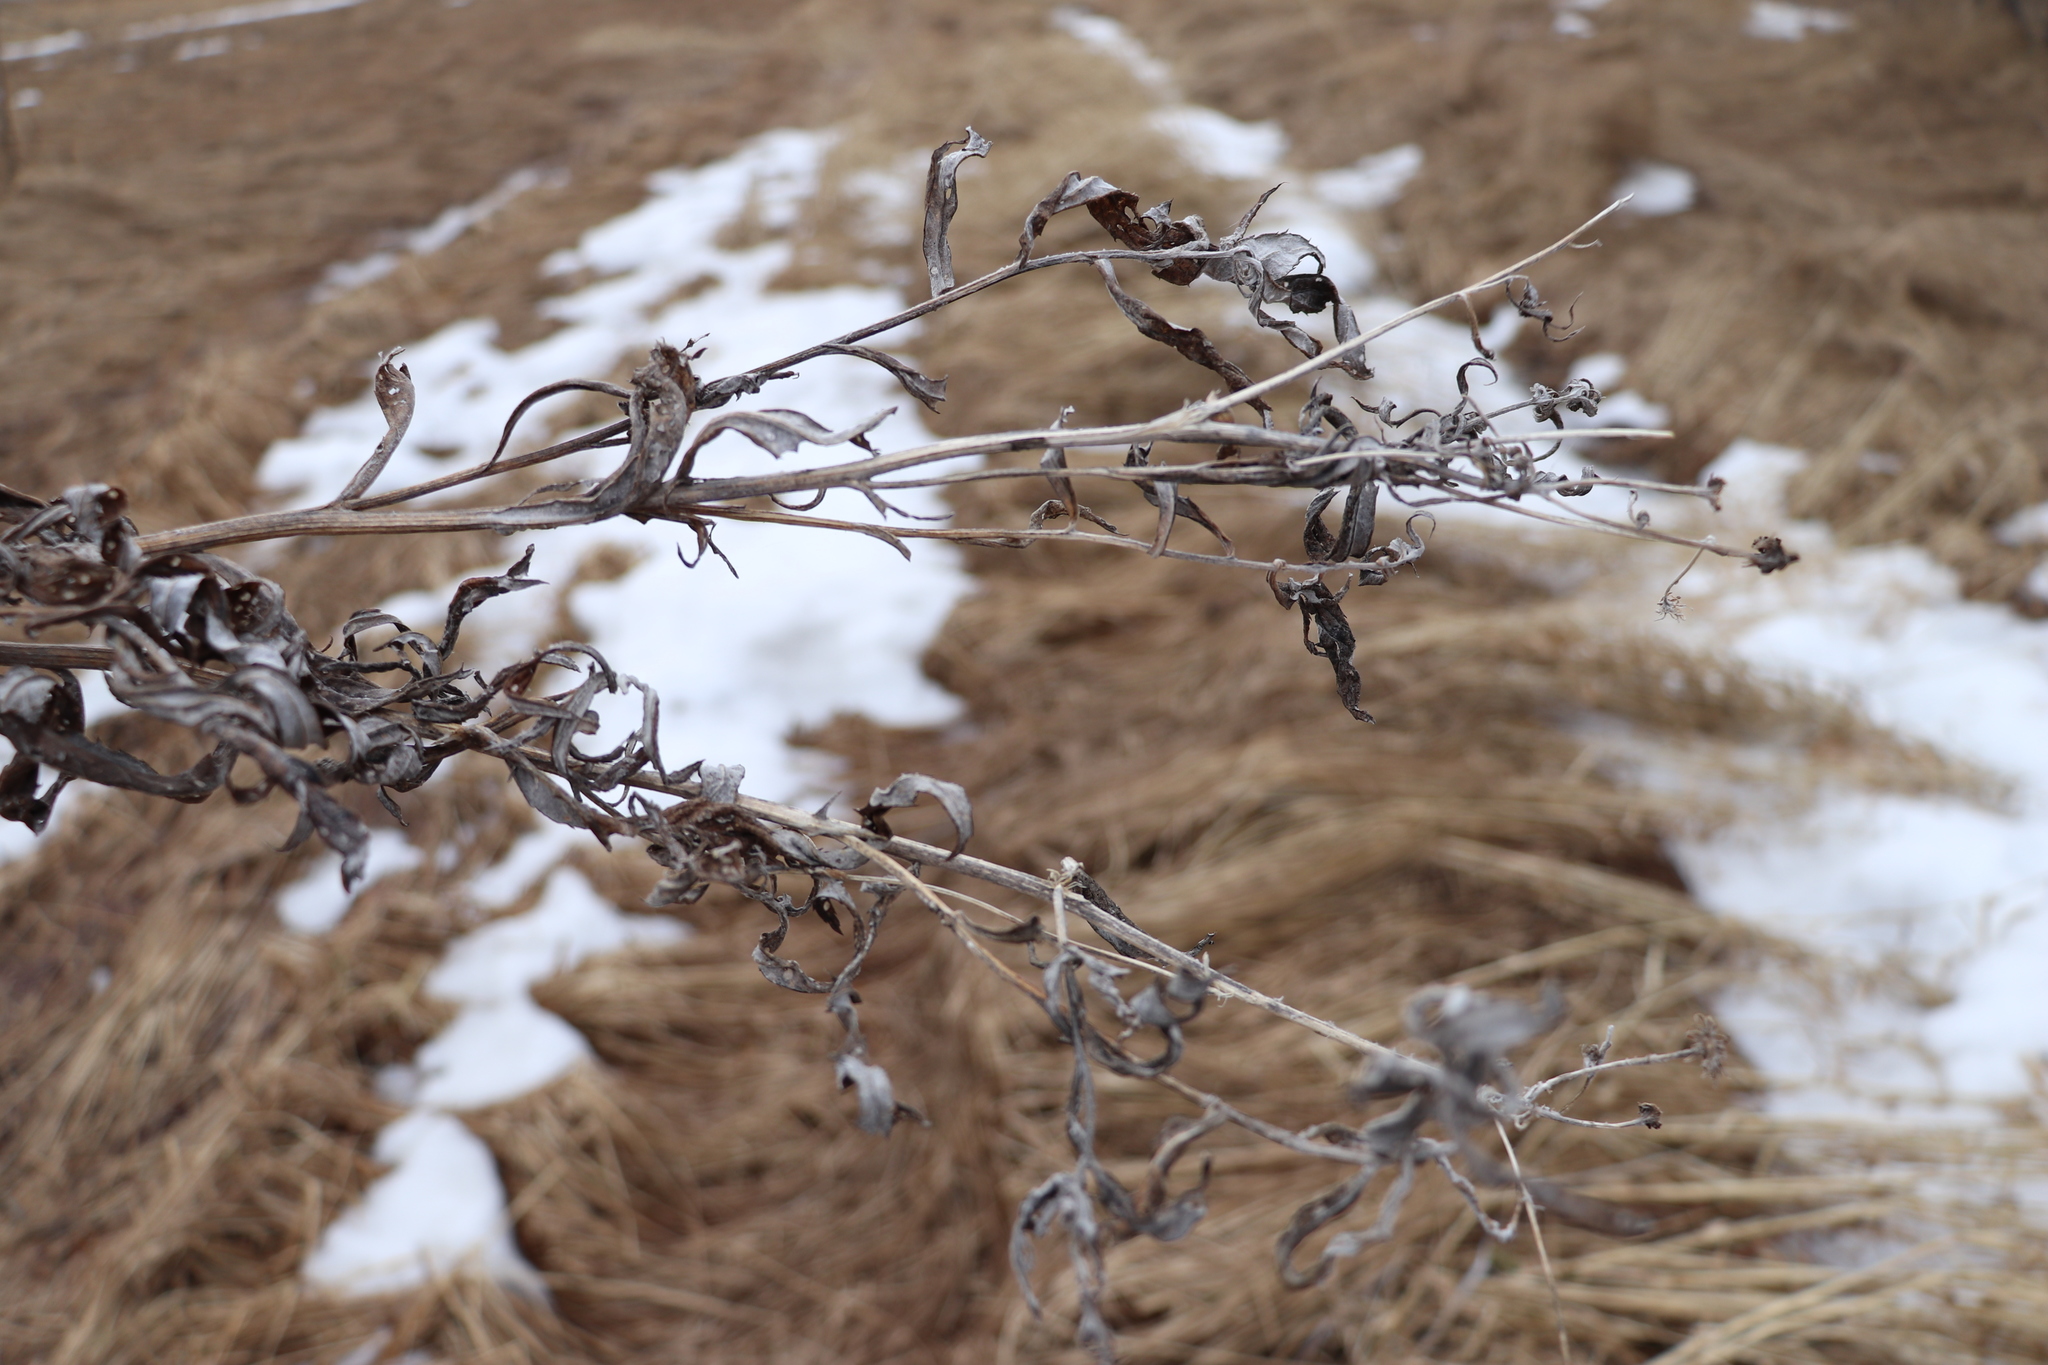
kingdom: Plantae
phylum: Tracheophyta
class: Magnoliopsida
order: Asterales
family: Asteraceae
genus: Cirsium
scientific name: Cirsium arvense
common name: Creeping thistle
